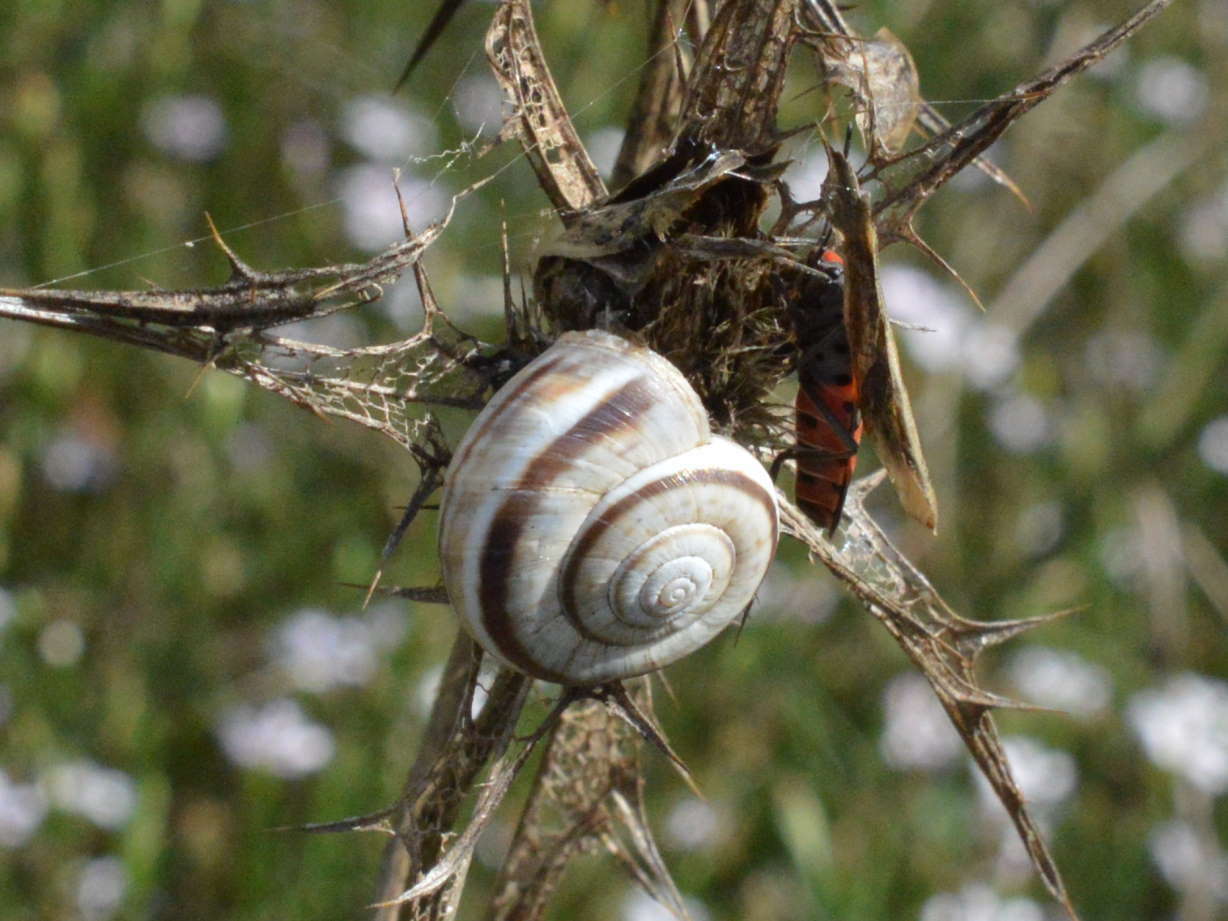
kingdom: Animalia
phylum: Mollusca
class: Gastropoda
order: Stylommatophora
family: Geomitridae
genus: Xerolenta
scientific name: Xerolenta obvia
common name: White heath snail
